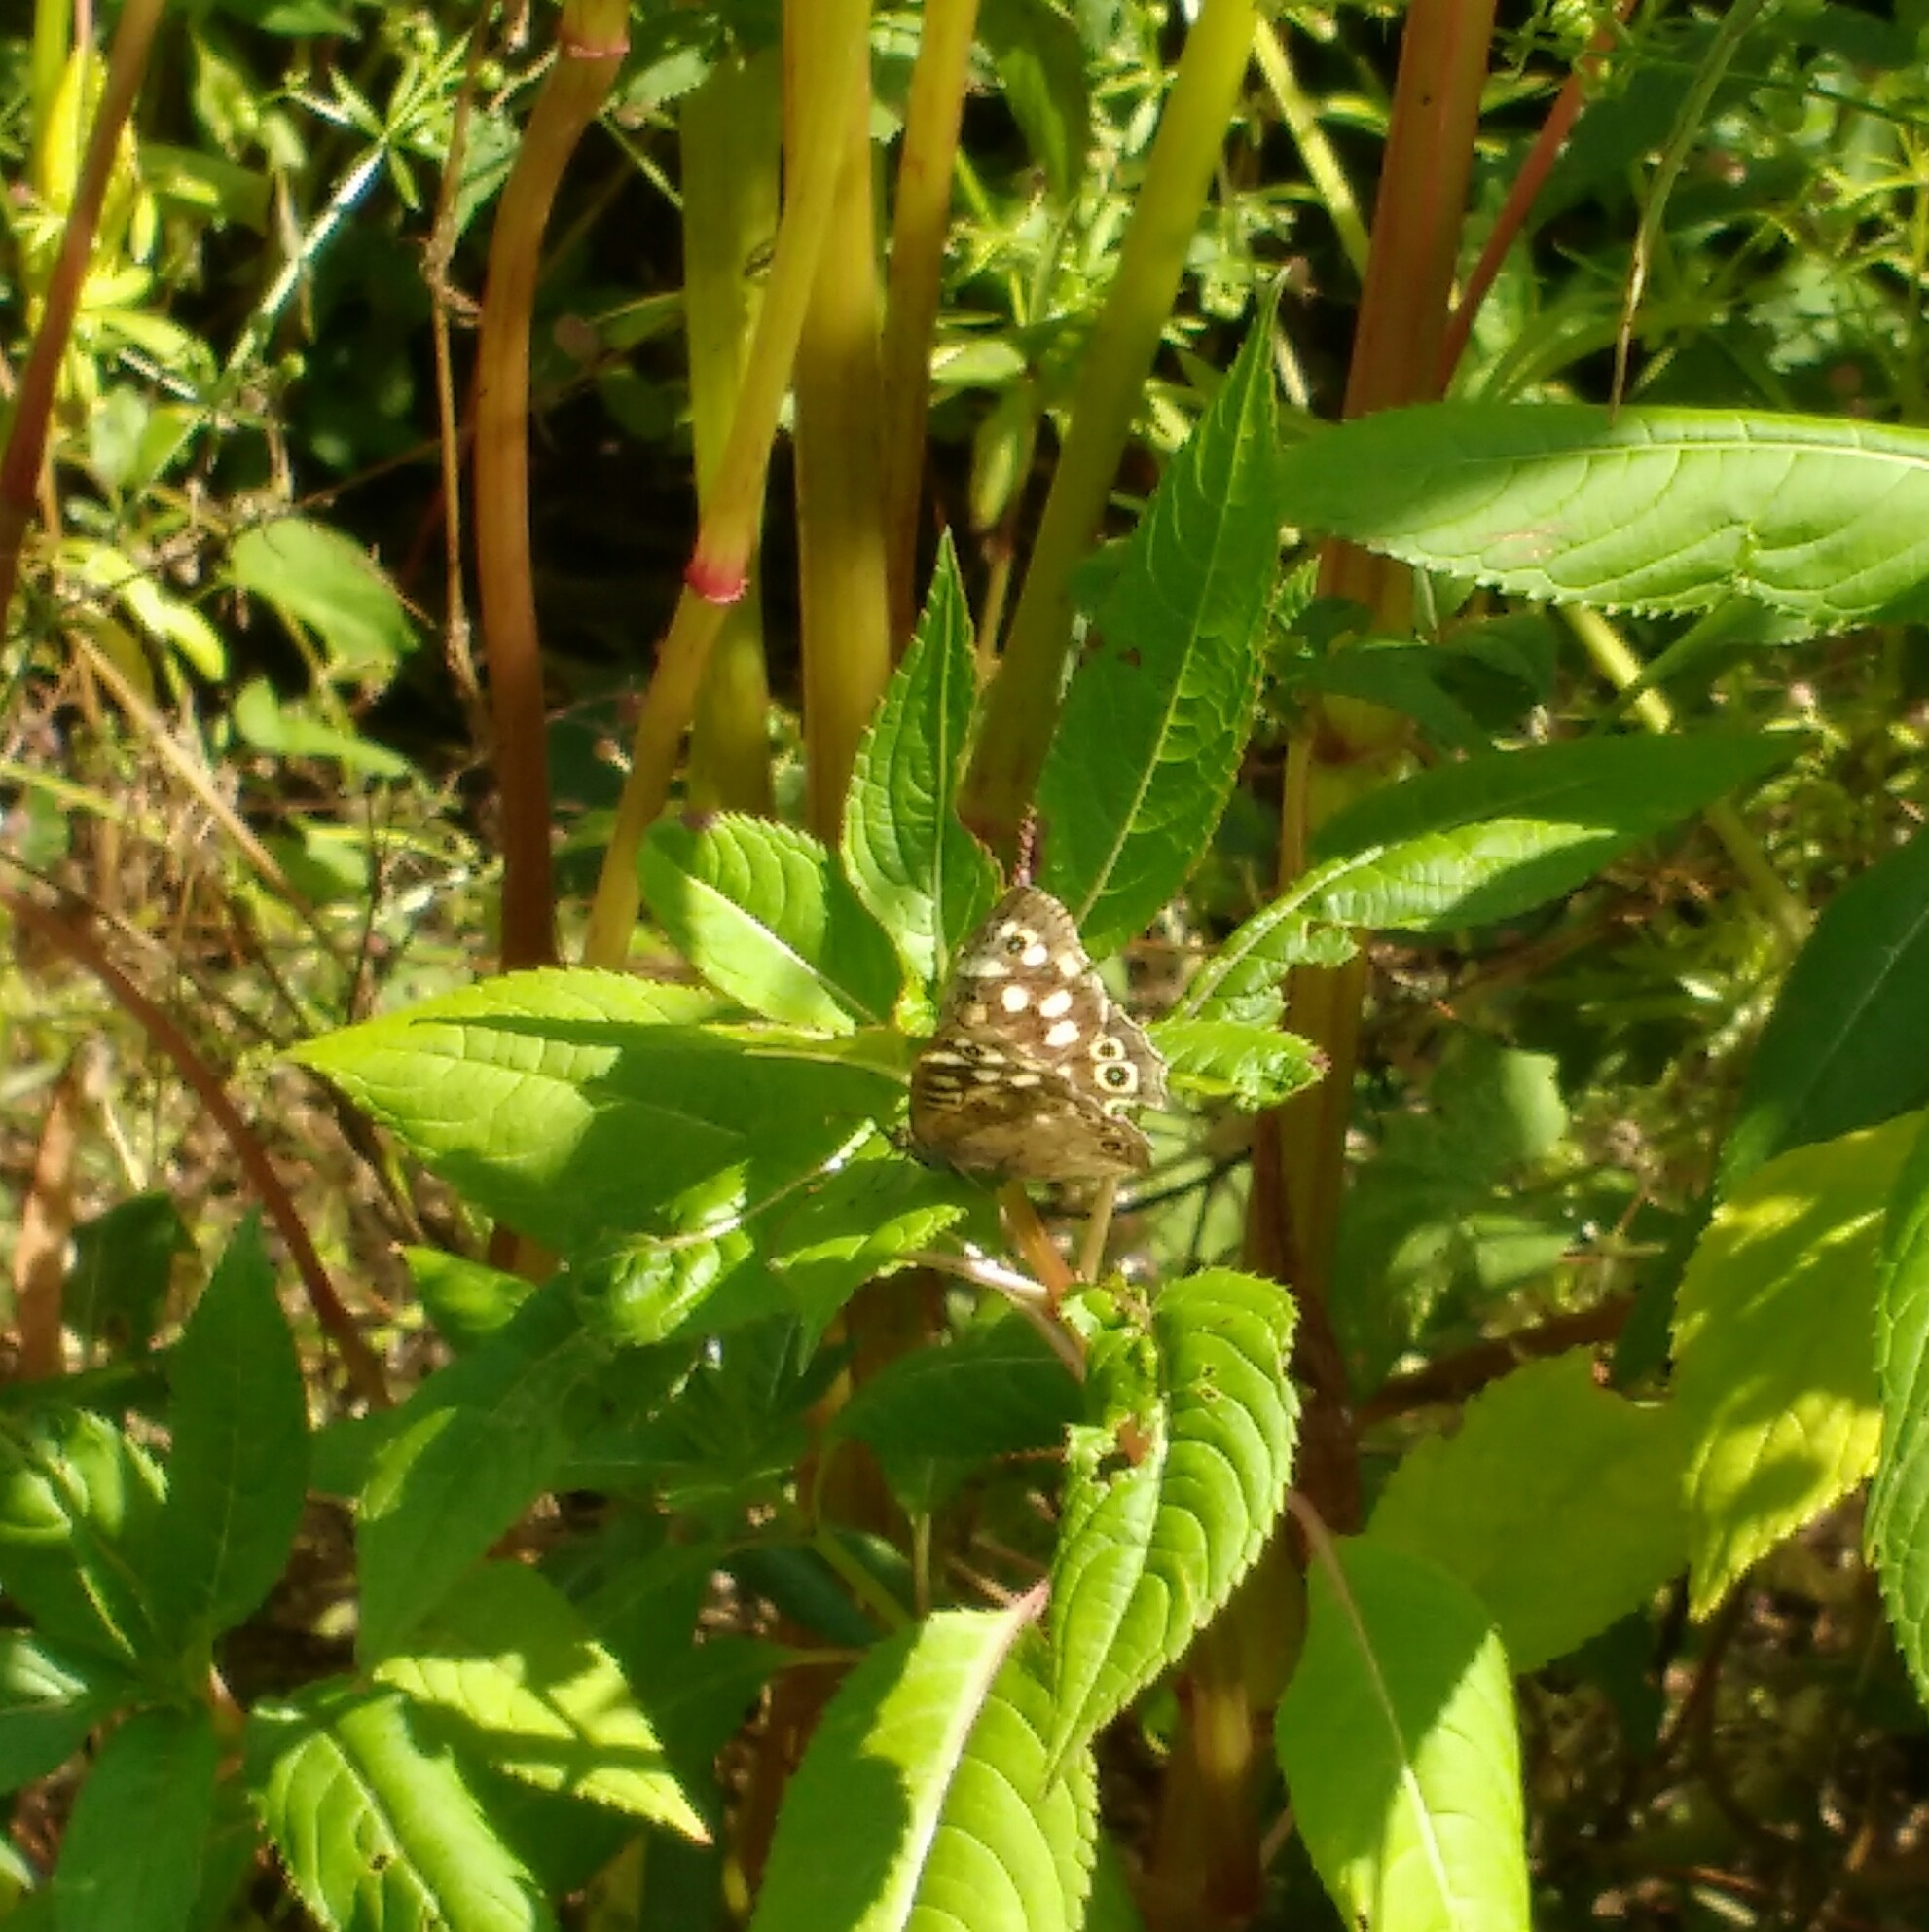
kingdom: Animalia
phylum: Arthropoda
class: Insecta
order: Lepidoptera
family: Nymphalidae
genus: Pararge
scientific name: Pararge aegeria
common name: Speckled wood
